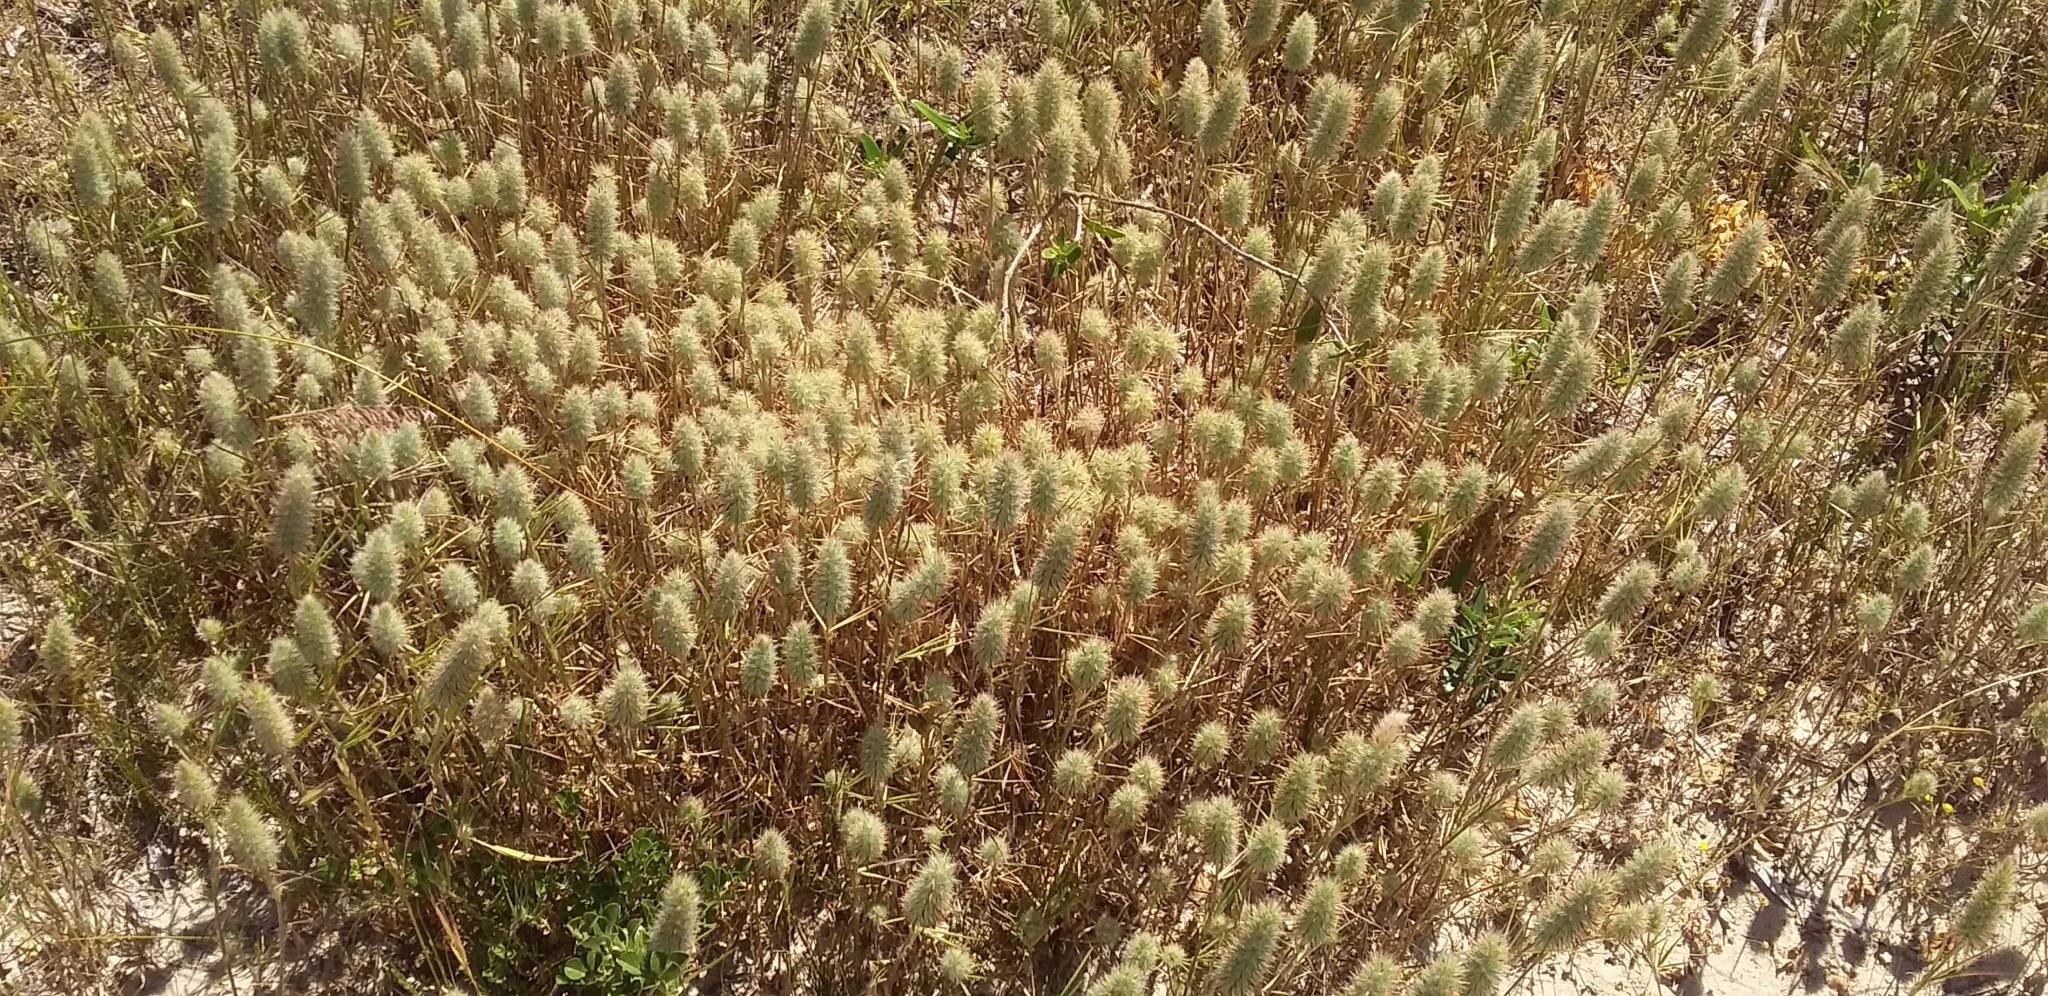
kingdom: Plantae
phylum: Tracheophyta
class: Magnoliopsida
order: Fabales
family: Fabaceae
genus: Trifolium
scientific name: Trifolium angustifolium
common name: Narrow clover
